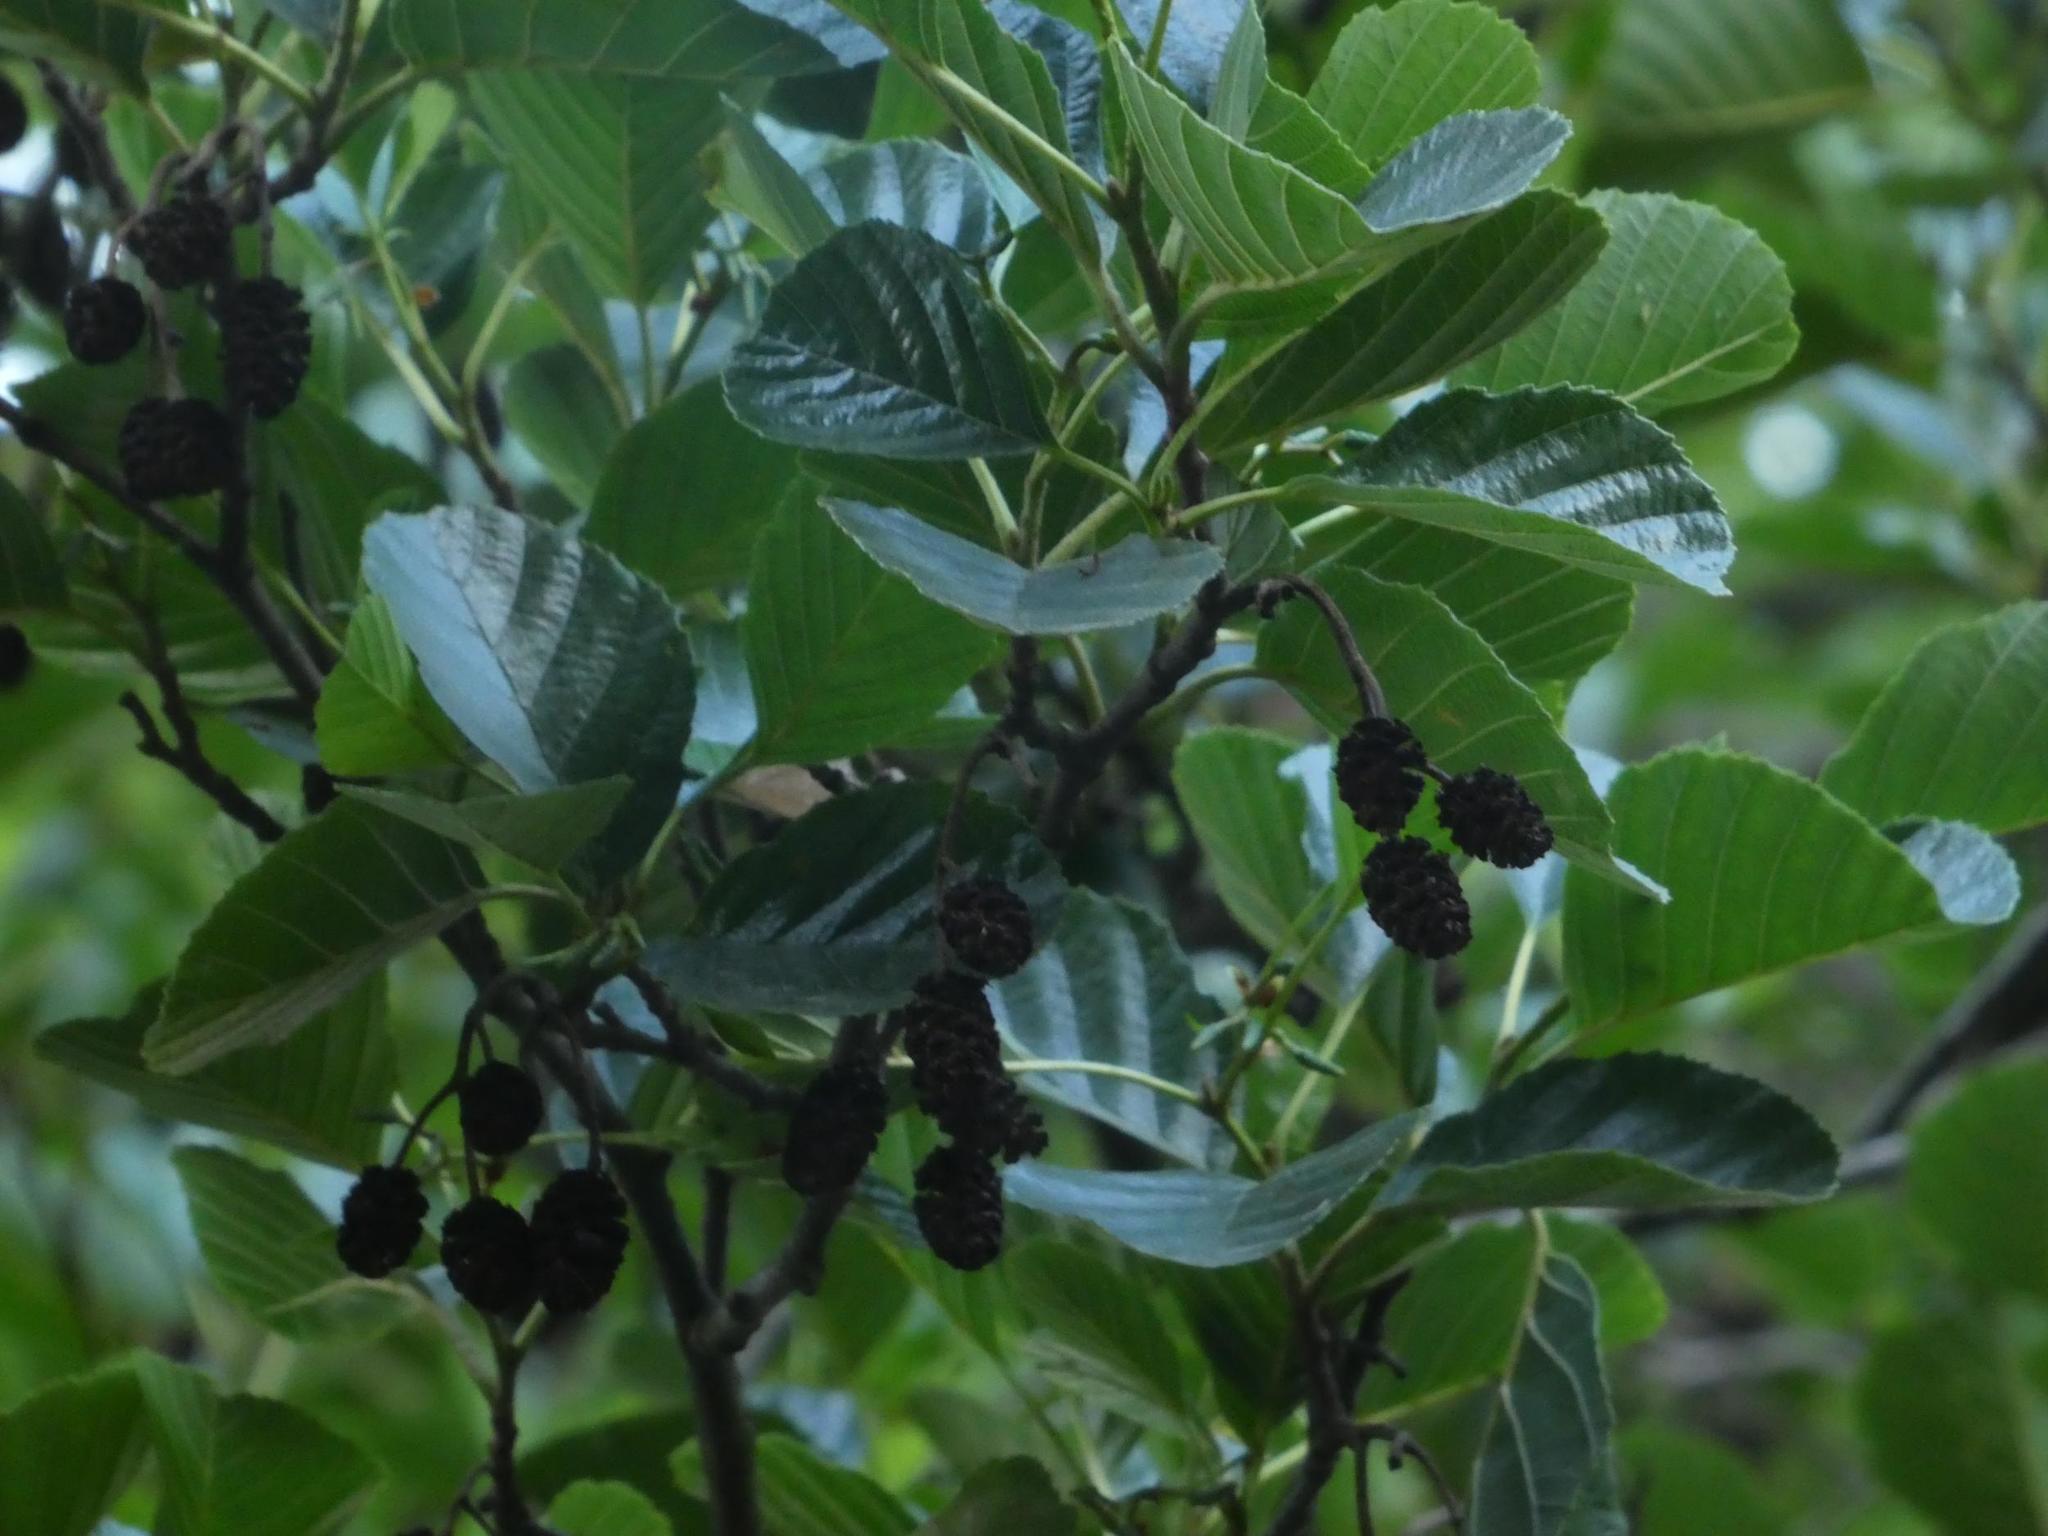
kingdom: Plantae
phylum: Tracheophyta
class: Magnoliopsida
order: Fagales
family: Betulaceae
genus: Alnus
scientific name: Alnus glutinosa
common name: Black alder
